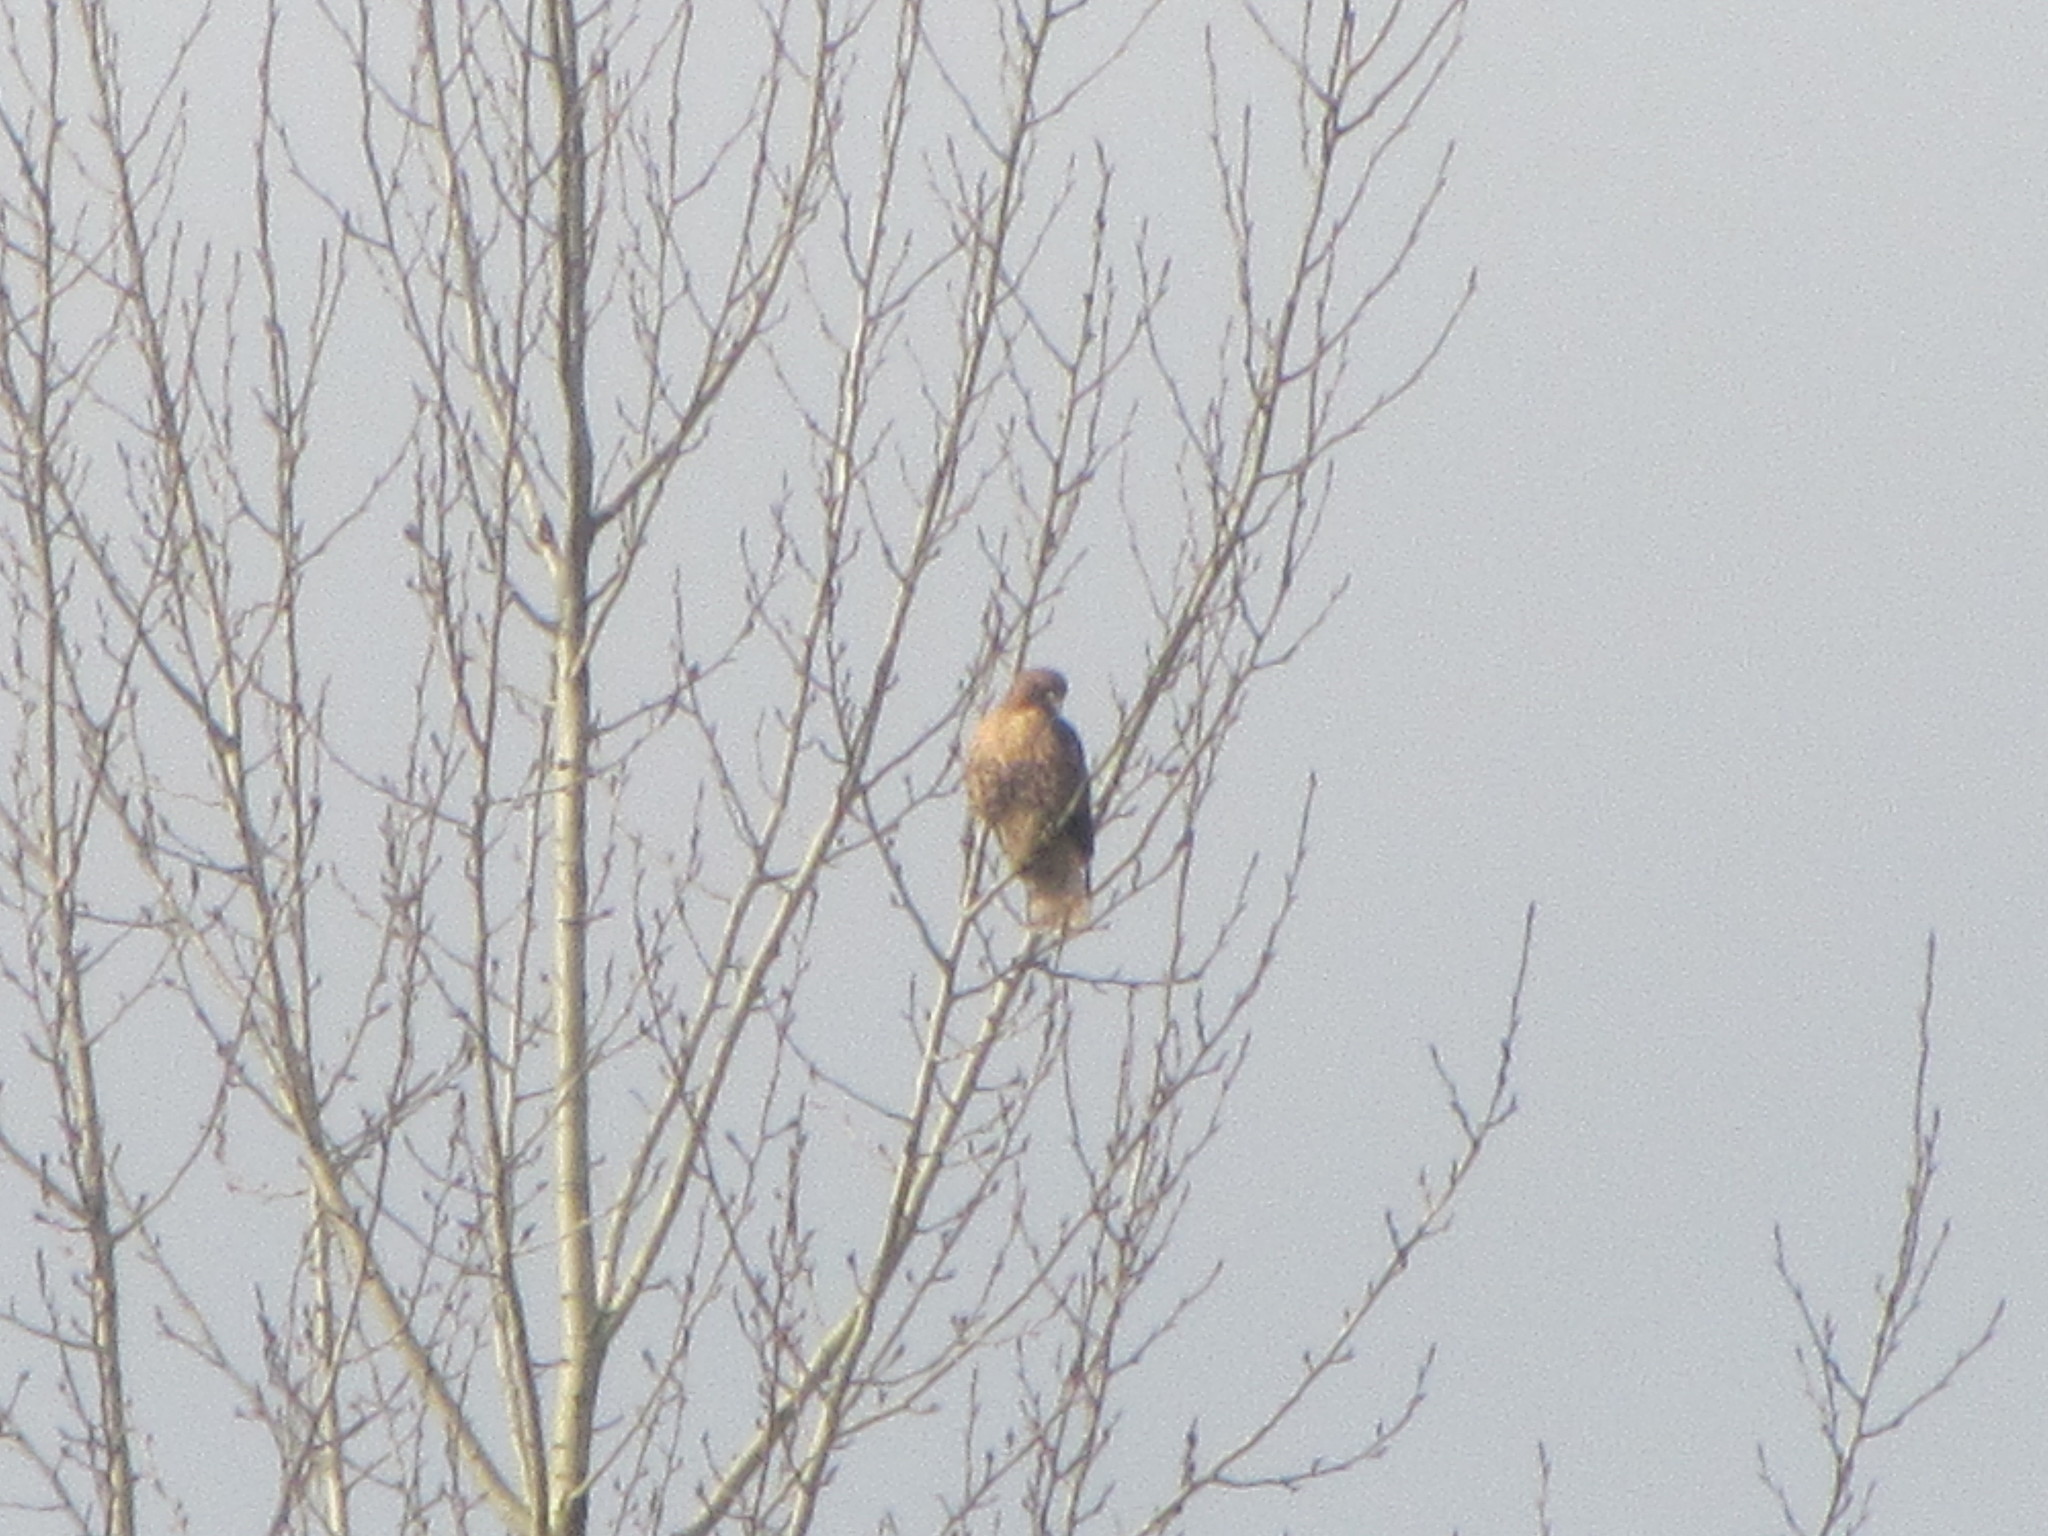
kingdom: Animalia
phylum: Chordata
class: Aves
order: Accipitriformes
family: Accipitridae
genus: Buteo
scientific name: Buteo jamaicensis
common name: Red-tailed hawk
